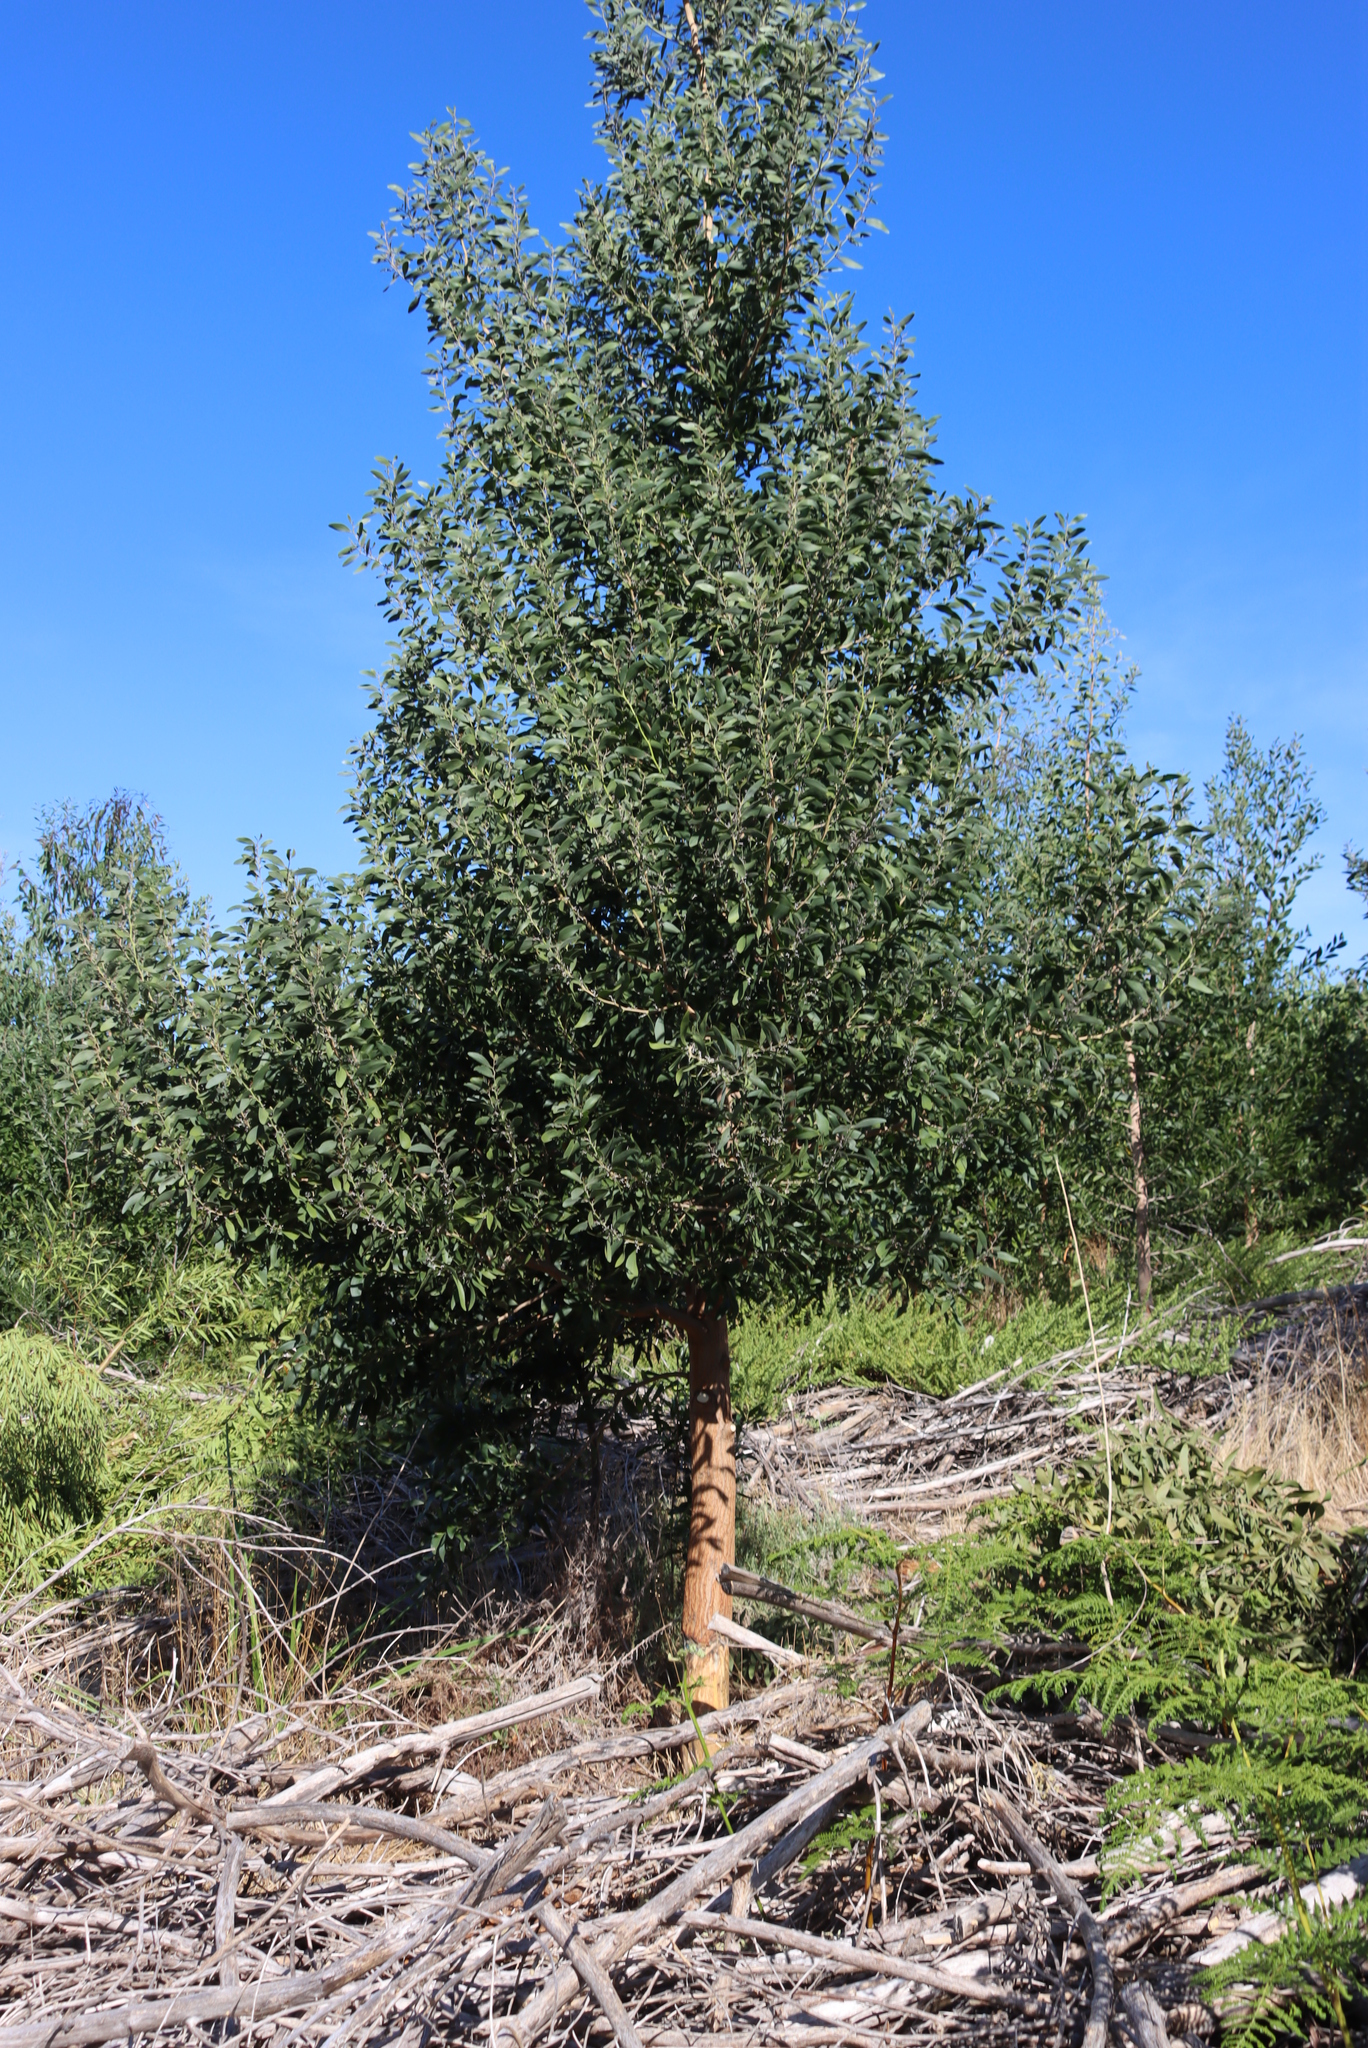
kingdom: Plantae
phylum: Tracheophyta
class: Magnoliopsida
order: Fabales
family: Fabaceae
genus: Acacia
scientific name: Acacia melanoxylon
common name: Blackwood
